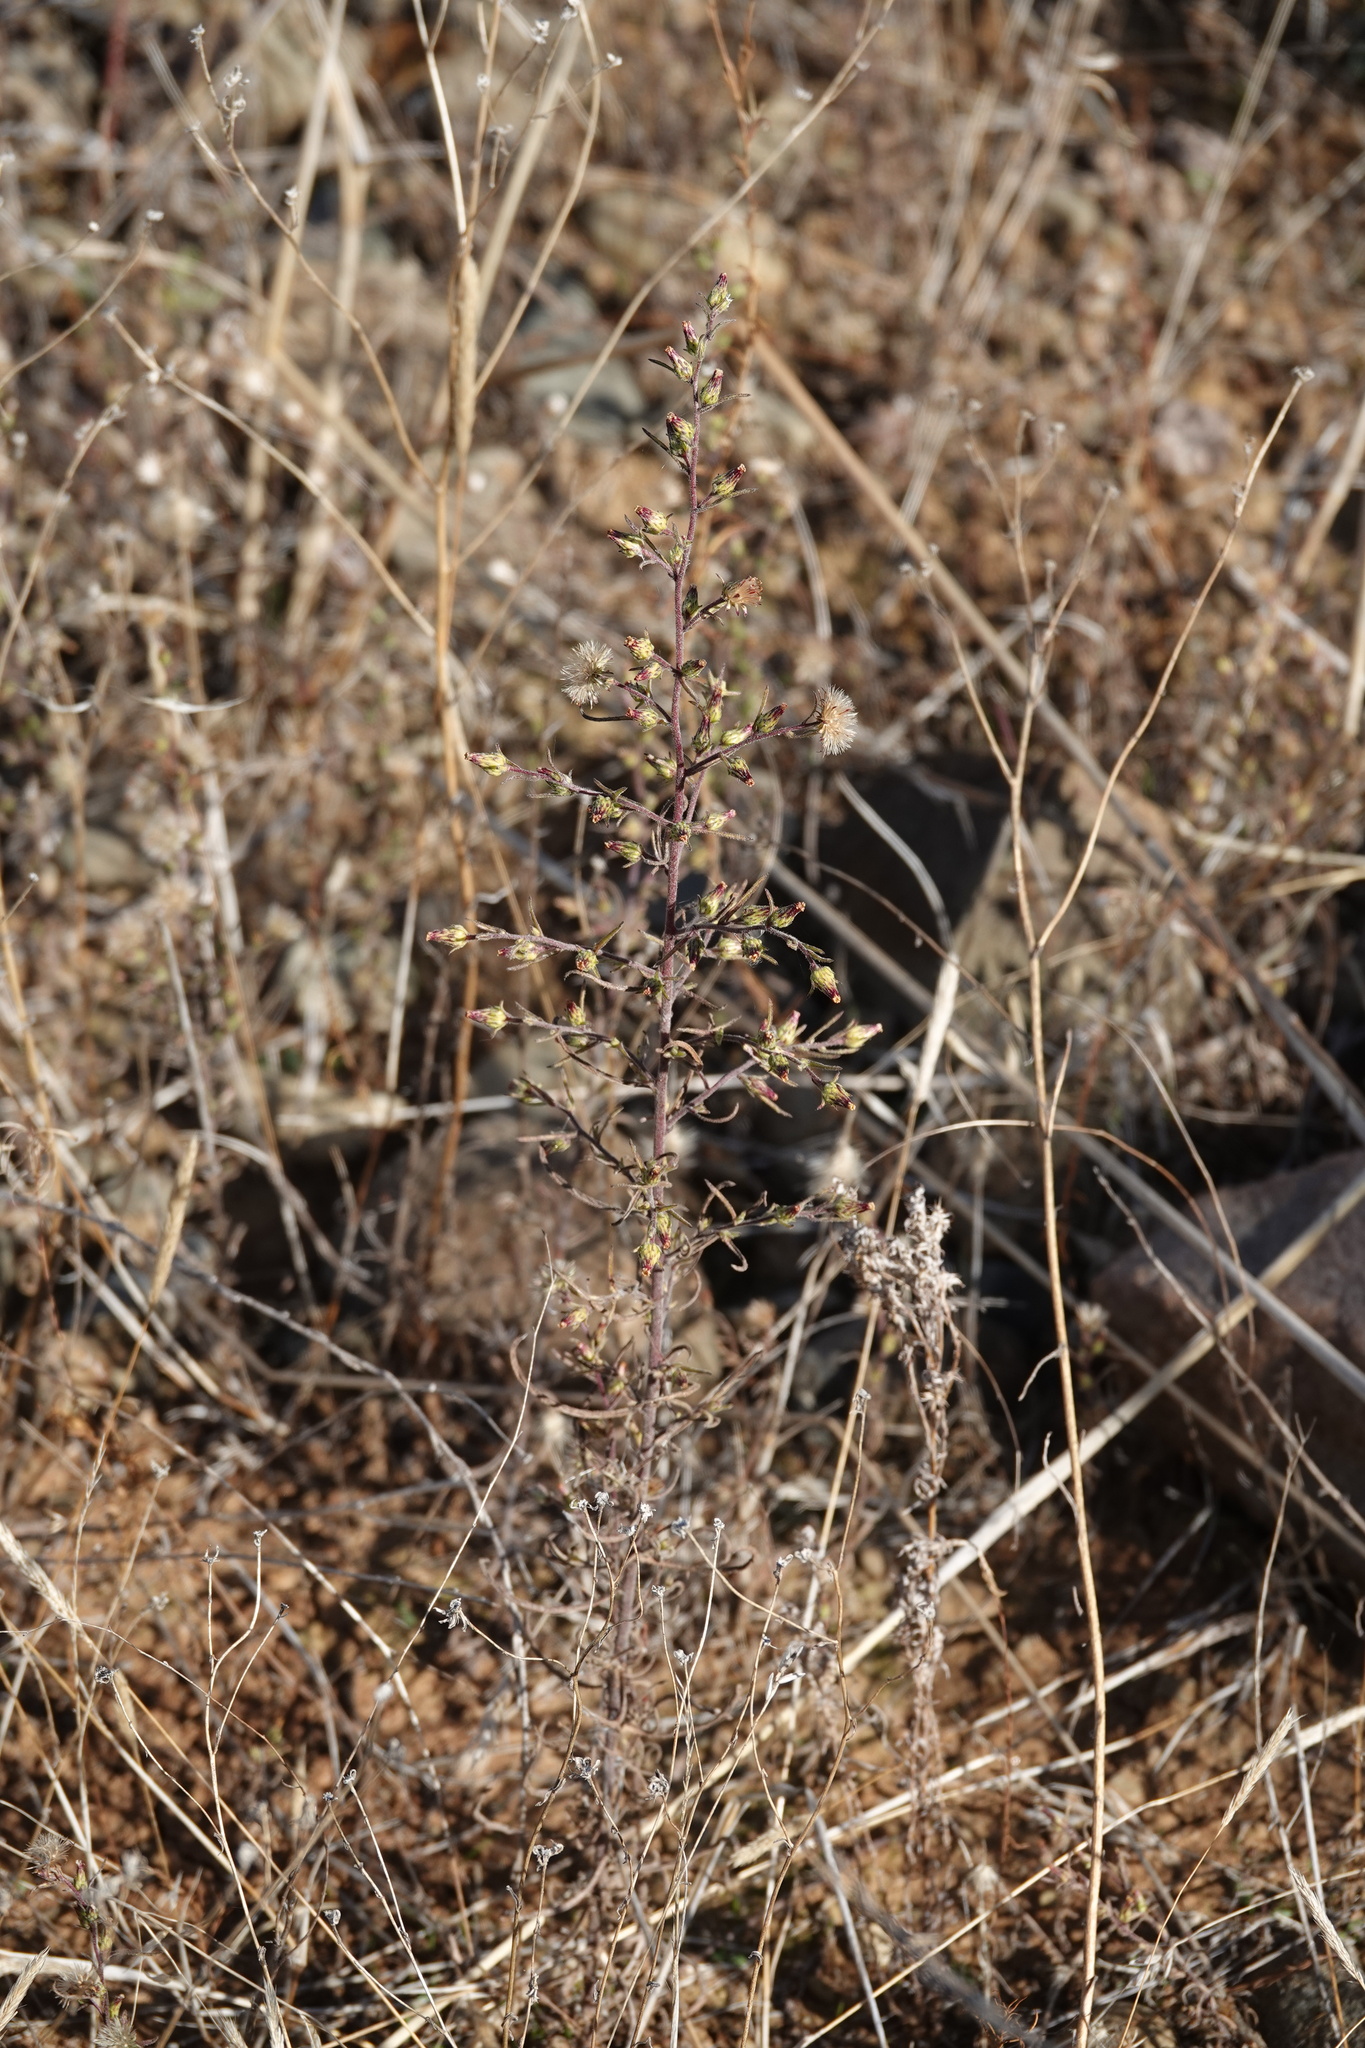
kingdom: Plantae
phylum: Tracheophyta
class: Magnoliopsida
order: Asterales
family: Asteraceae
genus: Dittrichia
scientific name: Dittrichia graveolens
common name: Stinking fleabane
